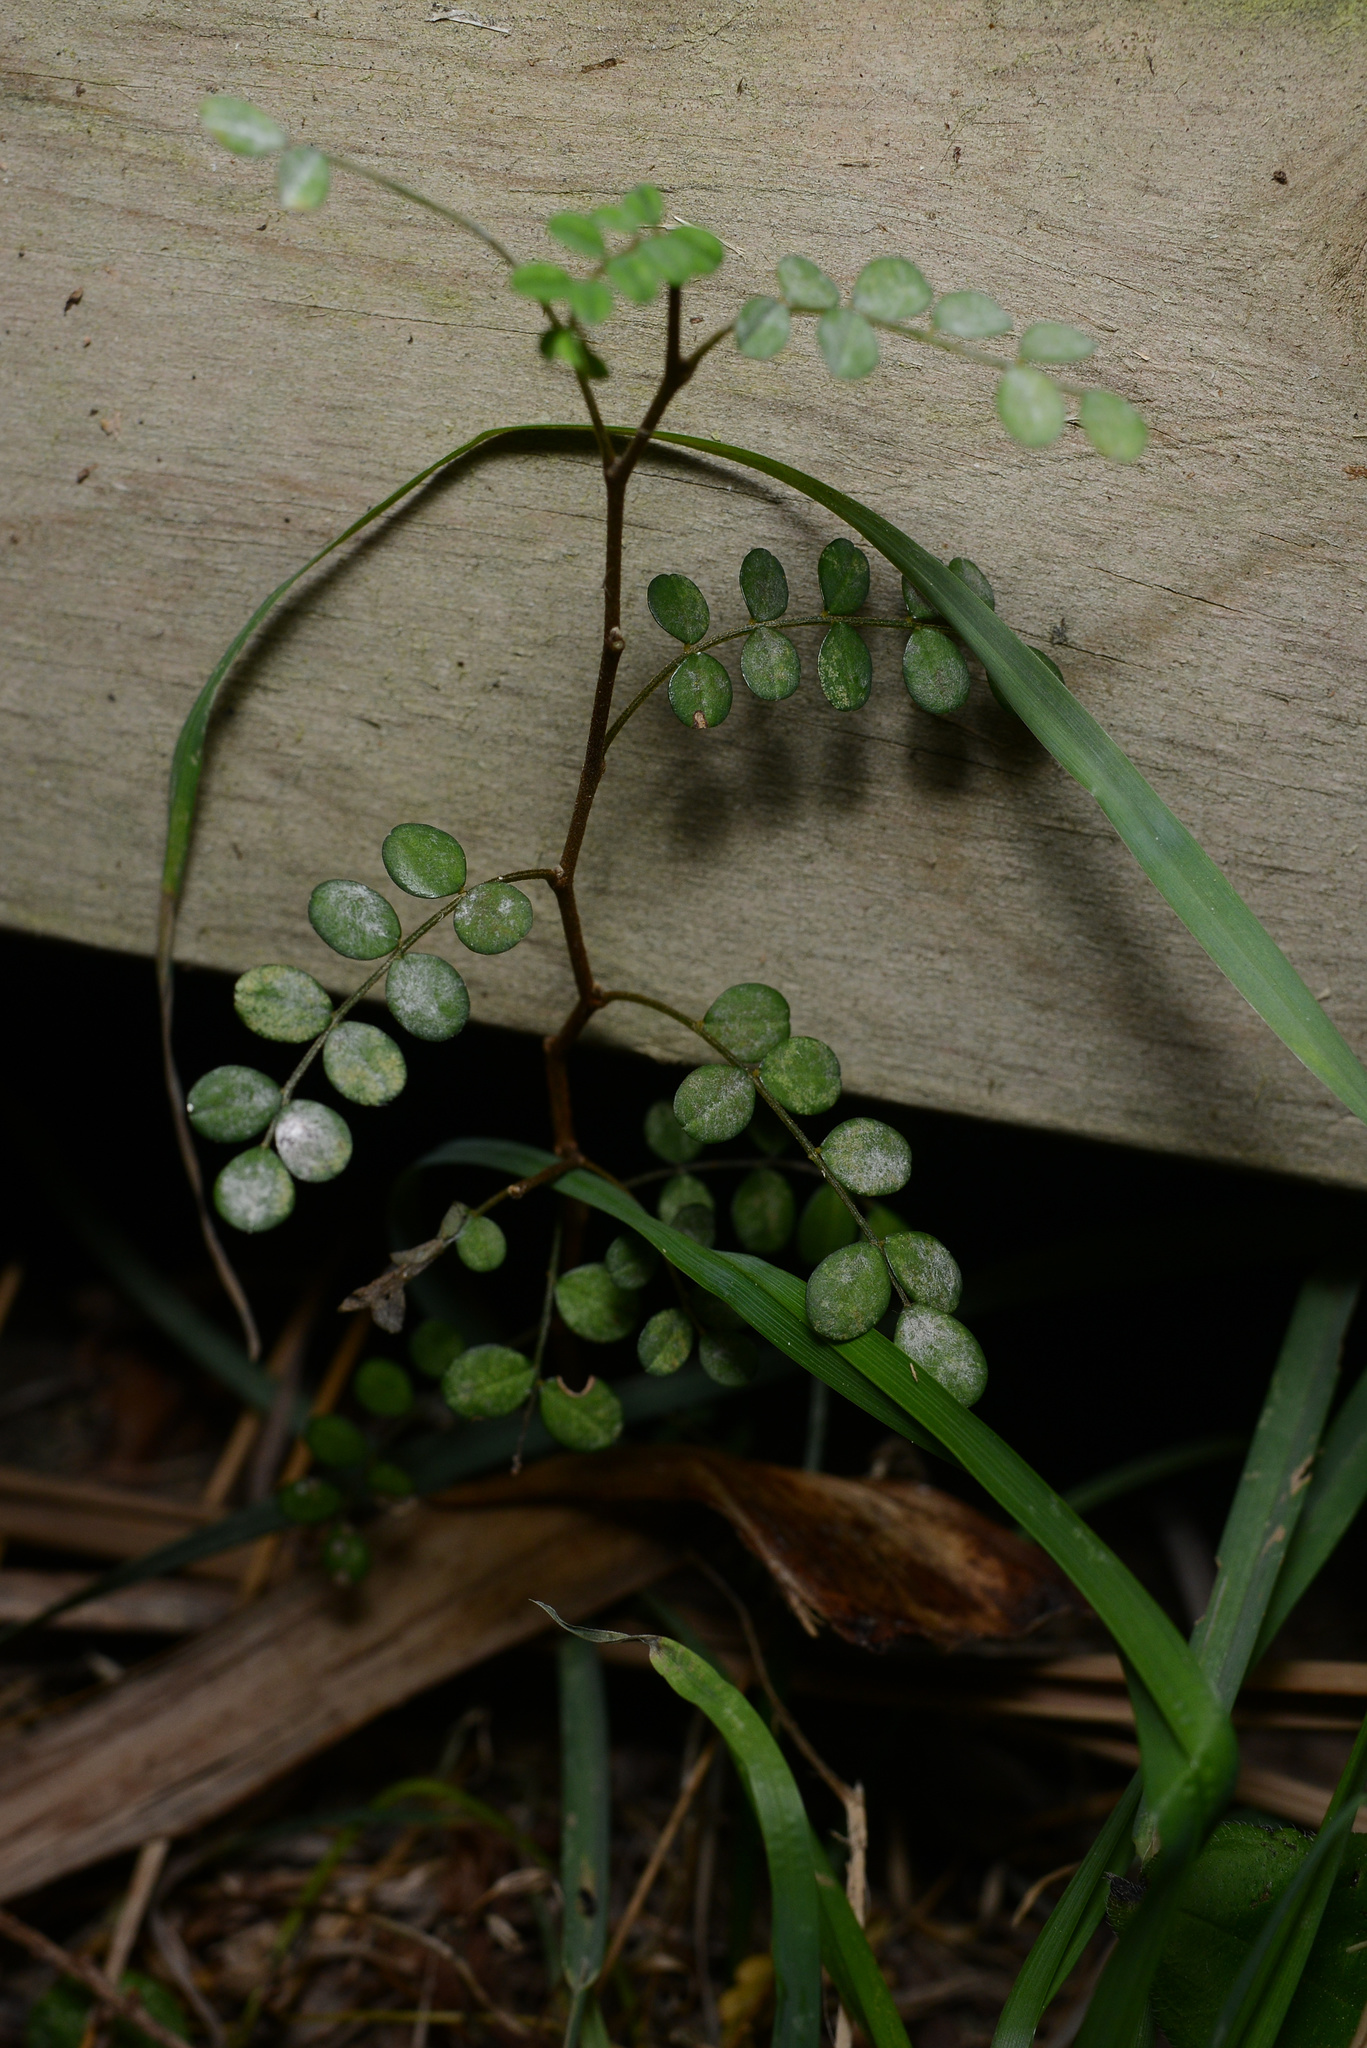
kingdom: Plantae
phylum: Tracheophyta
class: Magnoliopsida
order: Fabales
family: Fabaceae
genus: Sophora
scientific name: Sophora microphylla
